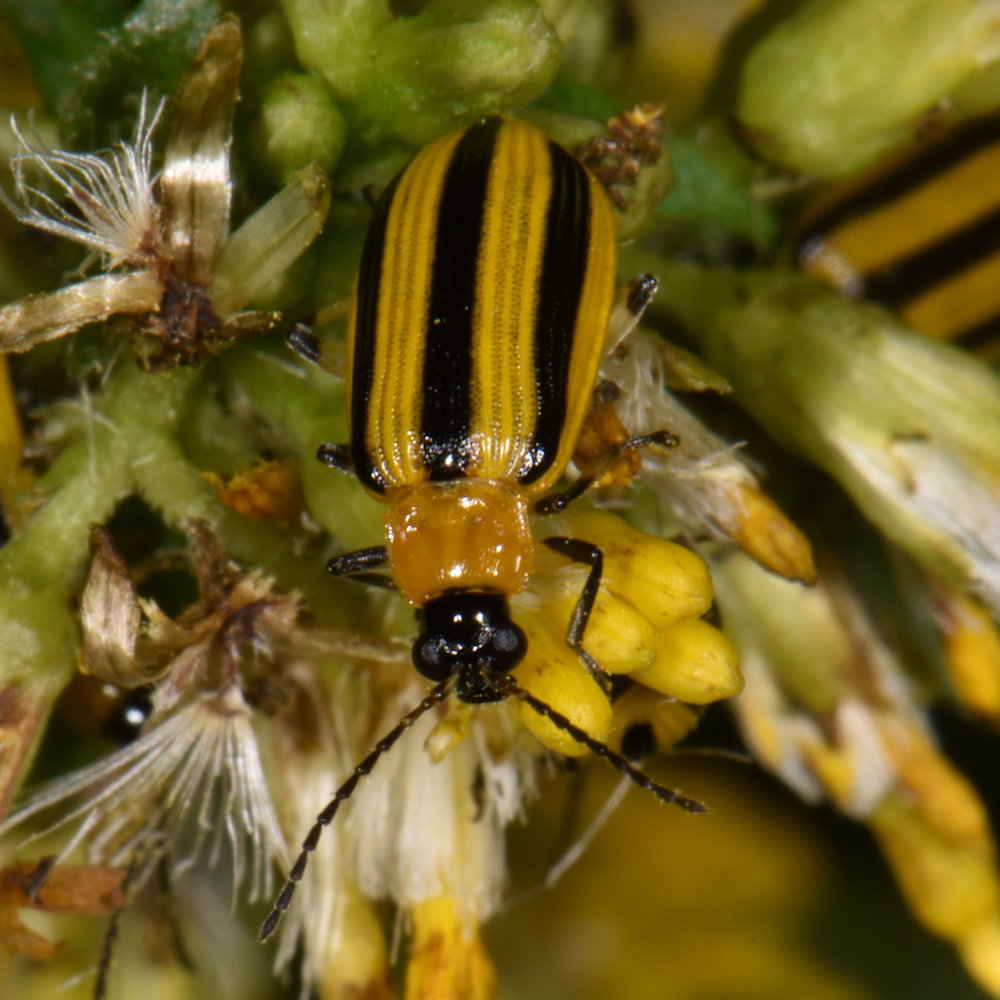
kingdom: Animalia
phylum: Arthropoda
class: Insecta
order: Coleoptera
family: Chrysomelidae
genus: Acalymma
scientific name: Acalymma vittatum
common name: Striped cucumber beetle
